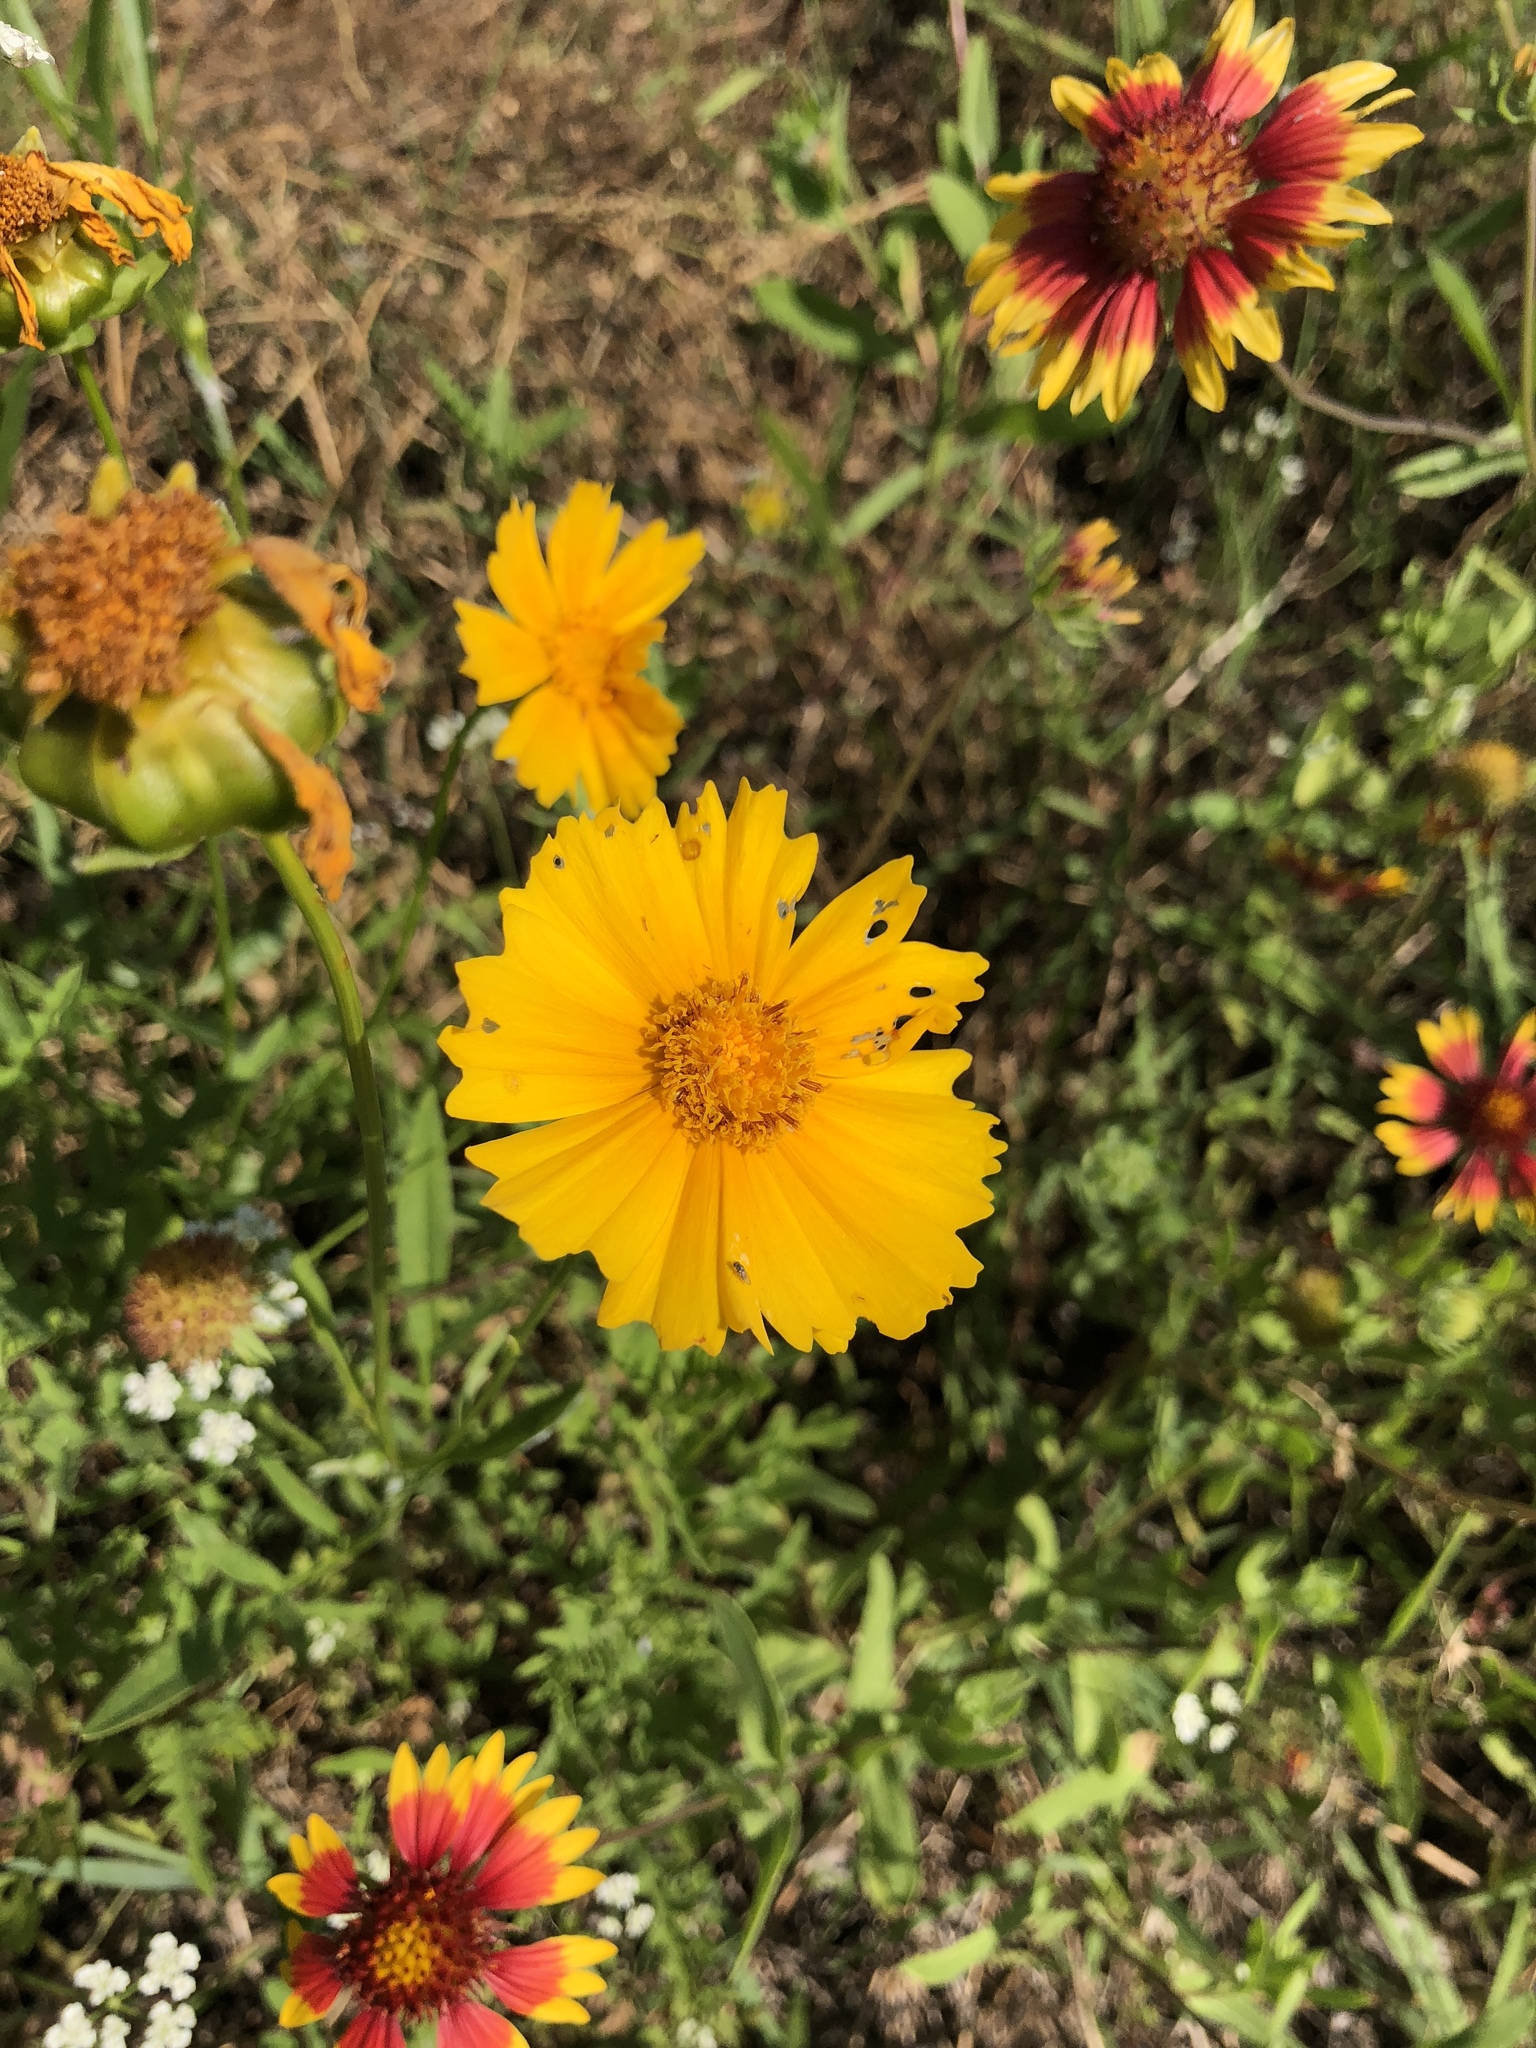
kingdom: Plantae
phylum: Tracheophyta
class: Magnoliopsida
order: Asterales
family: Asteraceae
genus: Coreopsis
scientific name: Coreopsis lanceolata
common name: Garden coreopsis
